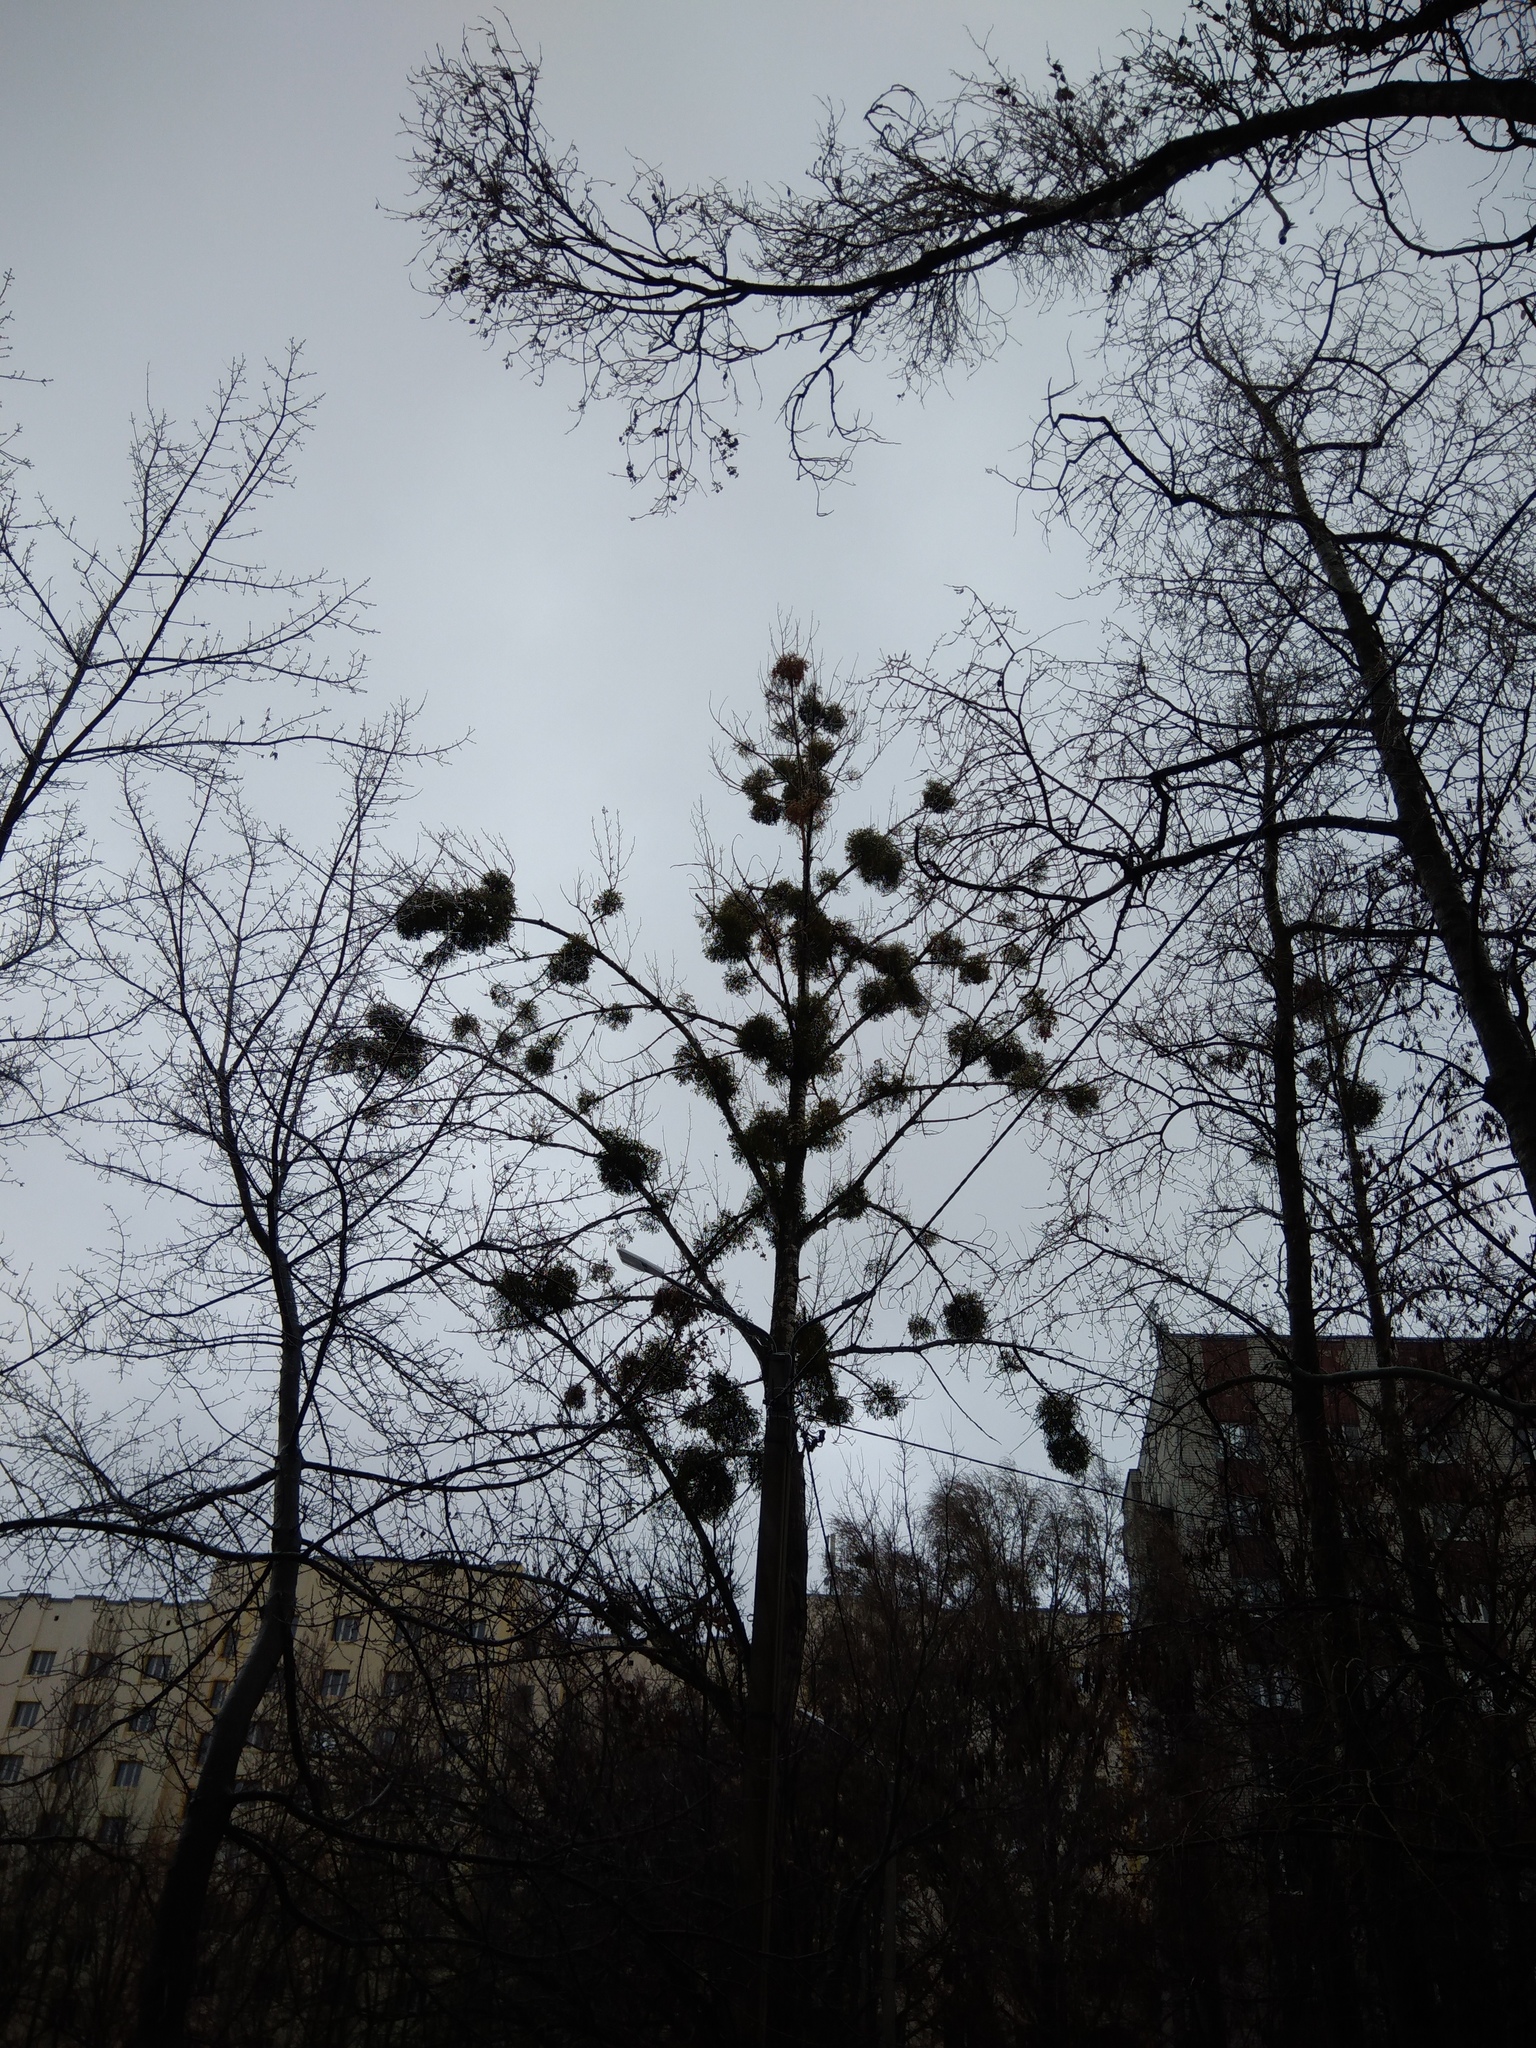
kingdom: Plantae
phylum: Tracheophyta
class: Magnoliopsida
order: Santalales
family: Viscaceae
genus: Viscum
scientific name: Viscum album
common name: Mistletoe
